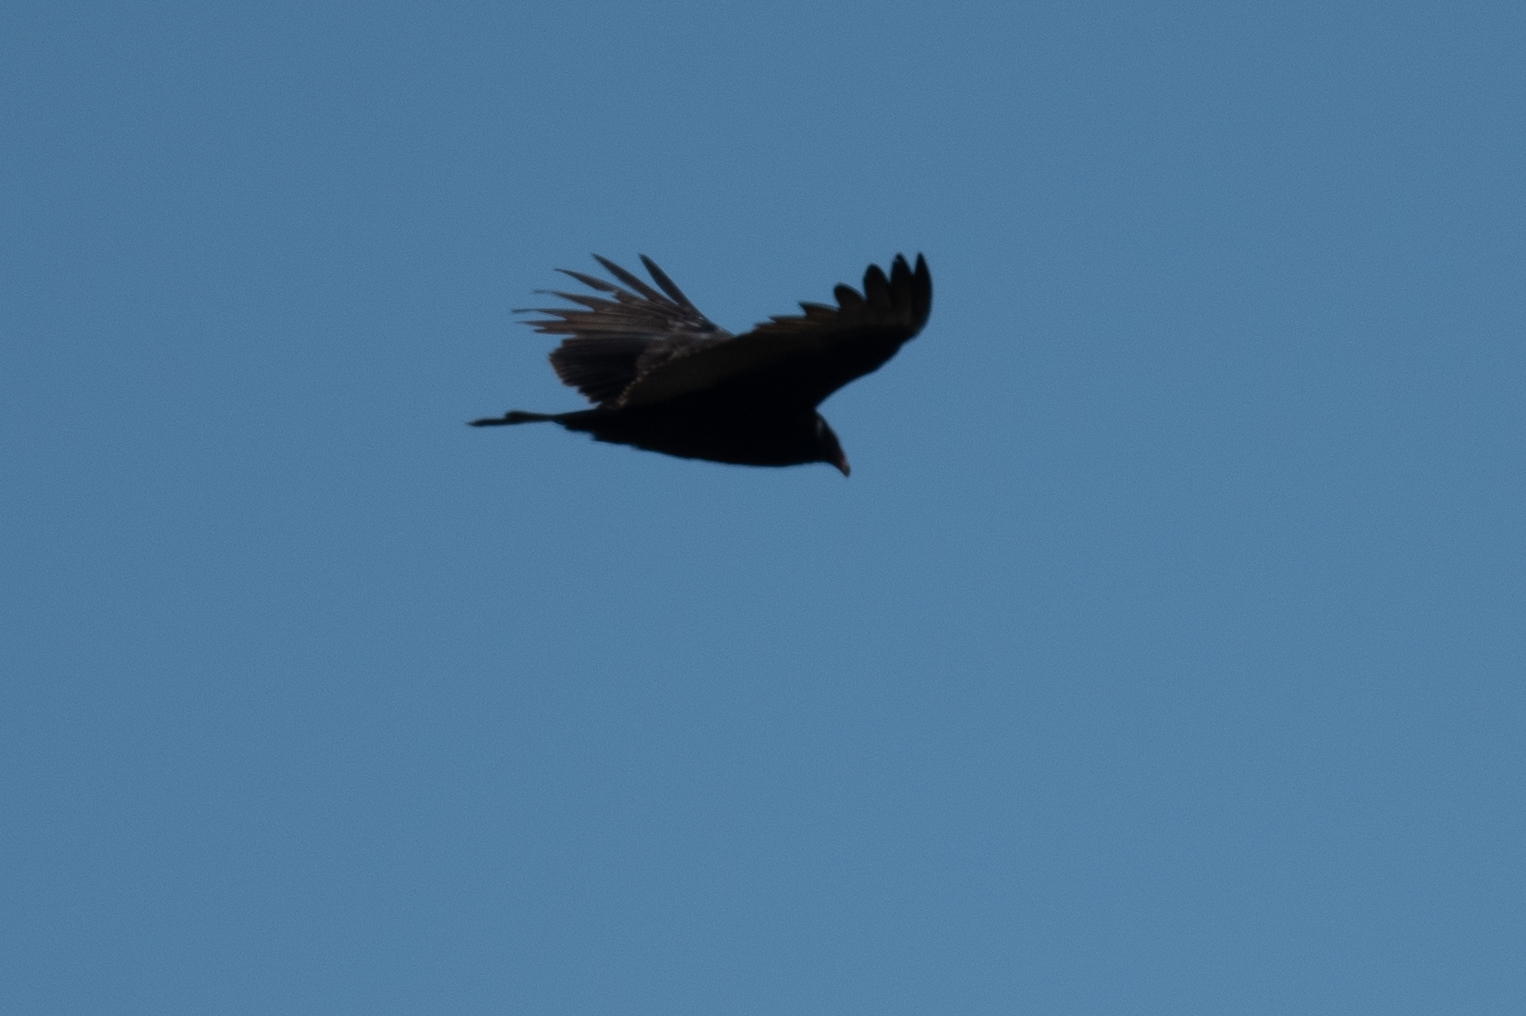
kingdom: Animalia
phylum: Chordata
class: Aves
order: Accipitriformes
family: Cathartidae
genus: Cathartes
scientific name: Cathartes aura
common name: Turkey vulture
